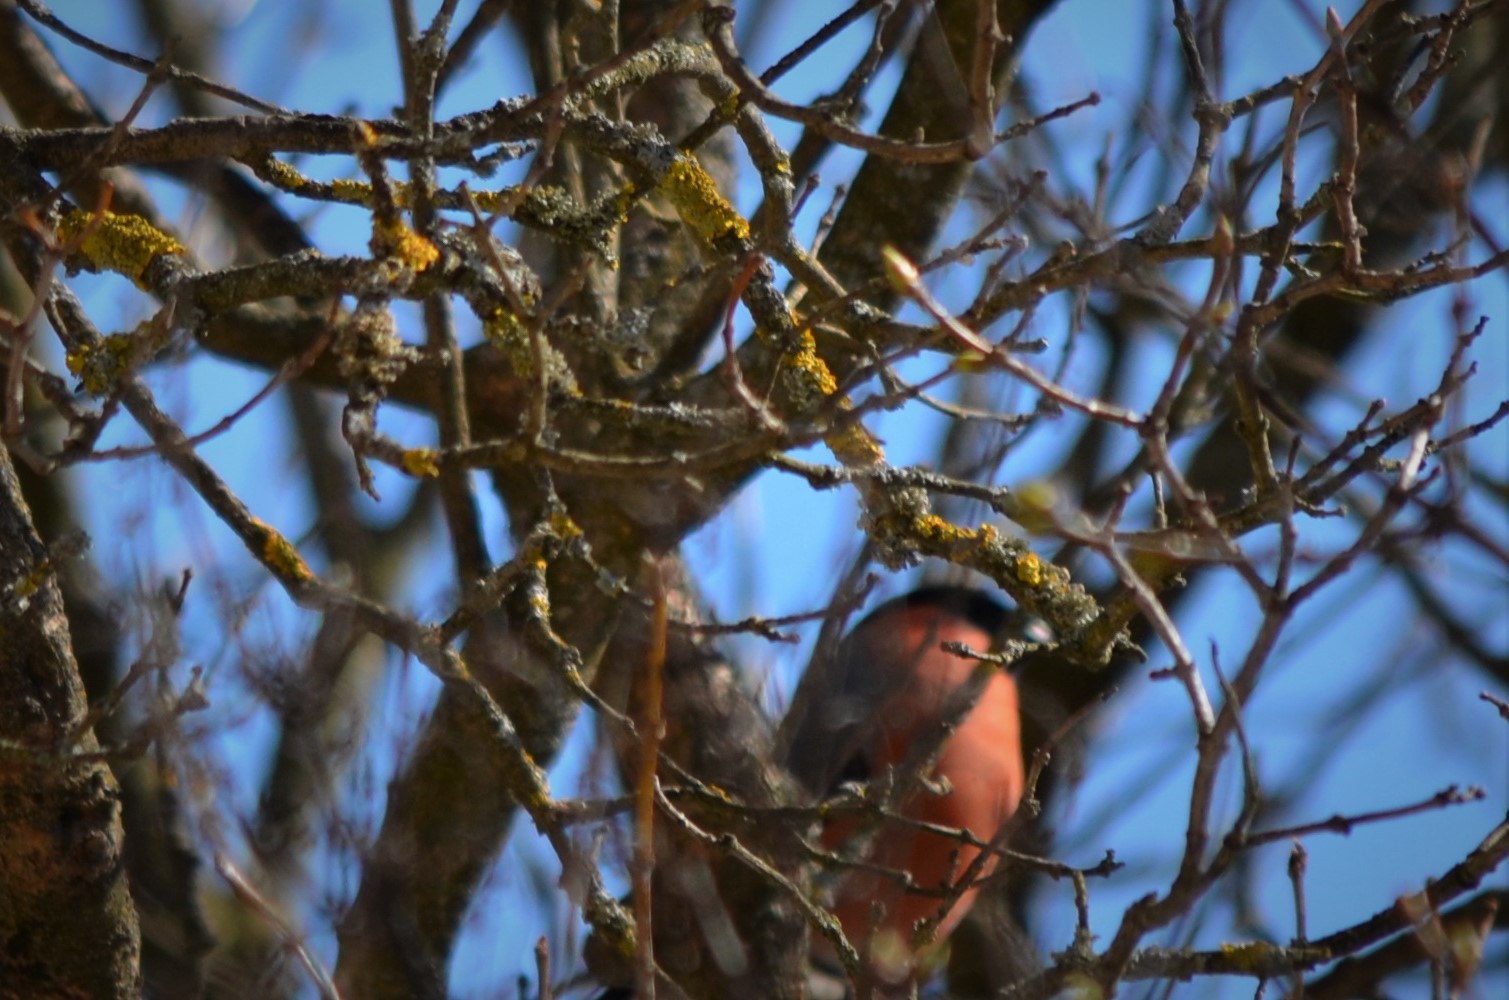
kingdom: Animalia
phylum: Chordata
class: Aves
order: Passeriformes
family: Fringillidae
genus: Pyrrhula
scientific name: Pyrrhula pyrrhula
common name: Eurasian bullfinch
